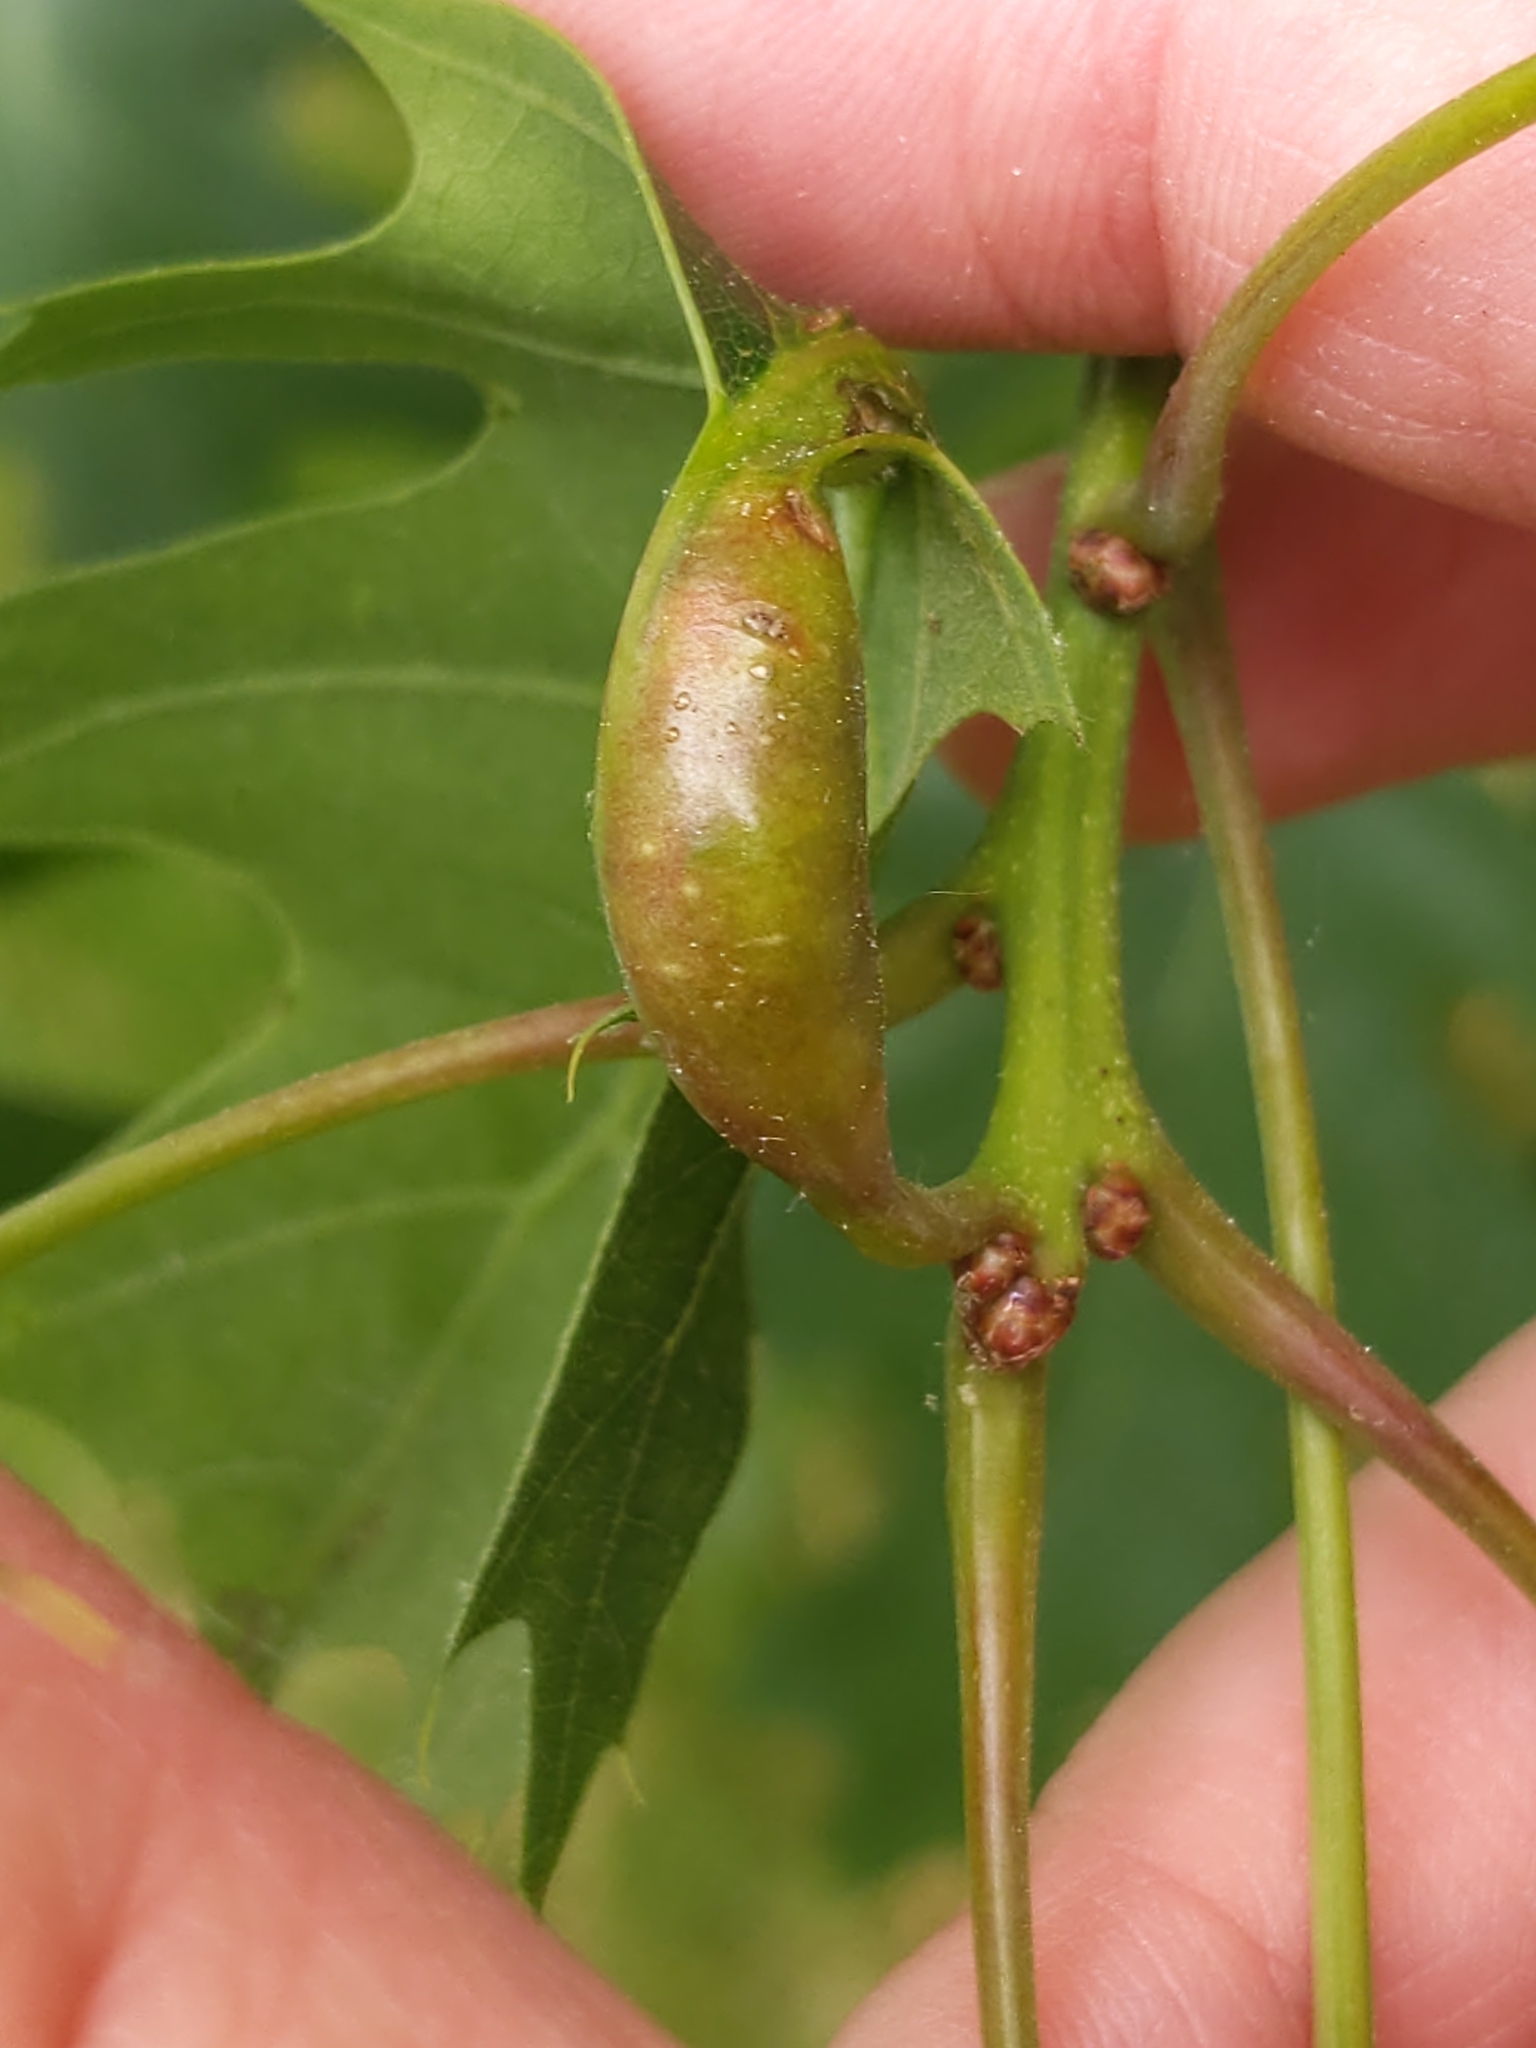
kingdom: Animalia
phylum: Arthropoda
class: Insecta
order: Hymenoptera
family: Cynipidae
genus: Melikaiella
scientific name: Melikaiella tumifica
